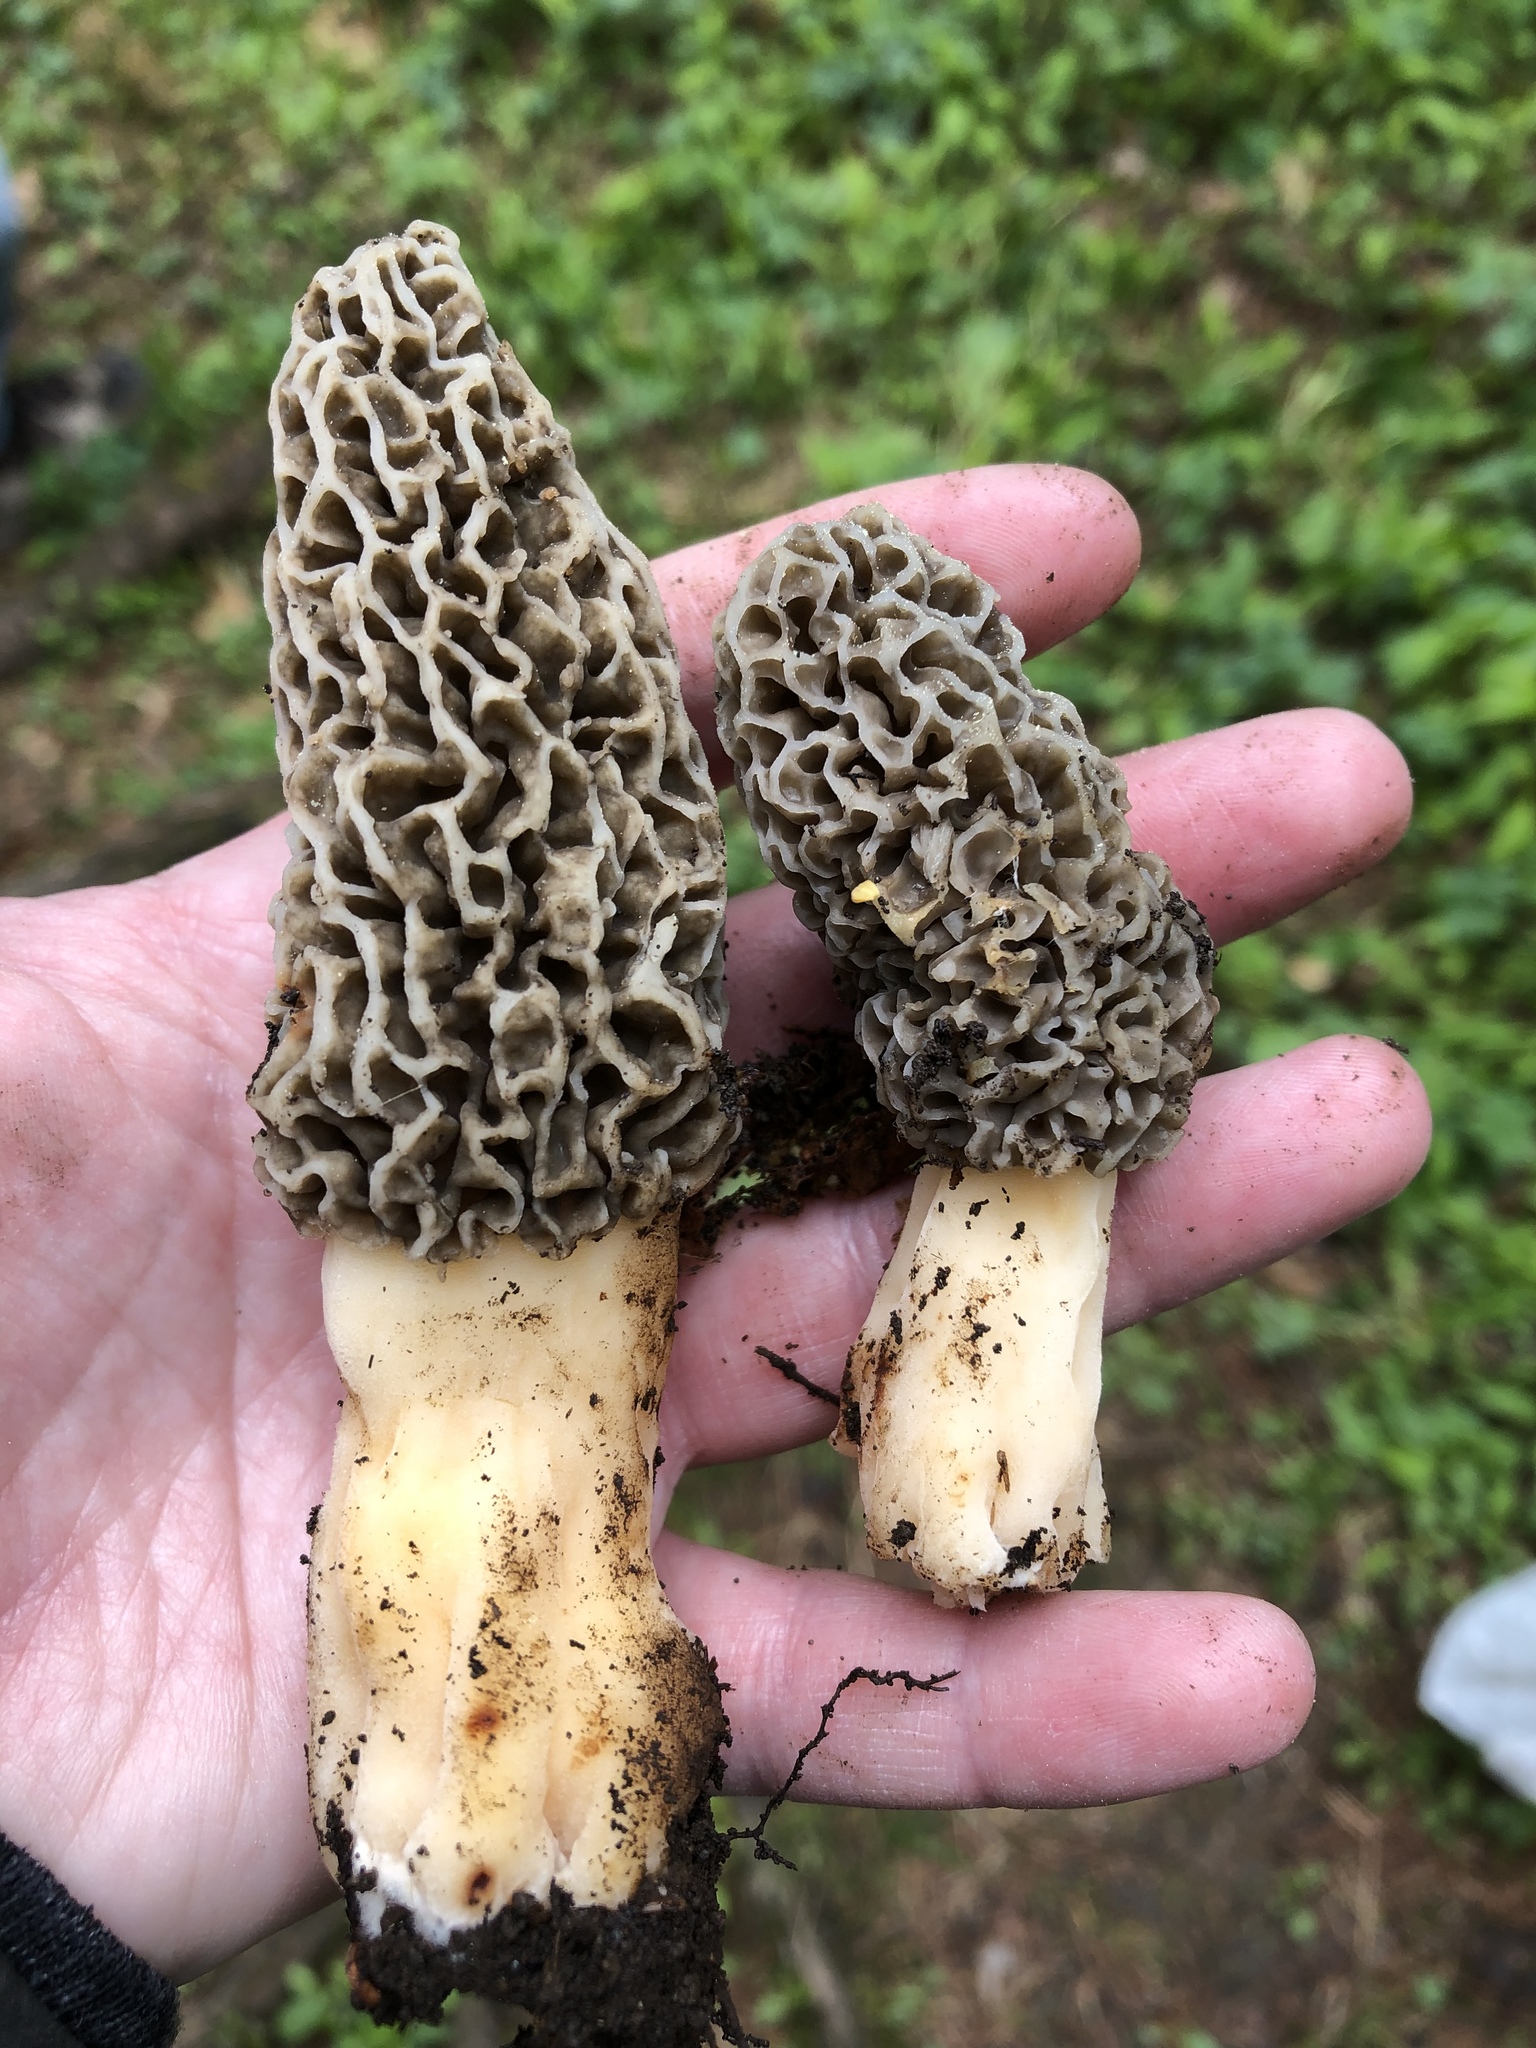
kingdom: Fungi
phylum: Ascomycota
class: Pezizomycetes
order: Pezizales
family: Morchellaceae
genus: Morchella
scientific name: Morchella americana
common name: White morel
